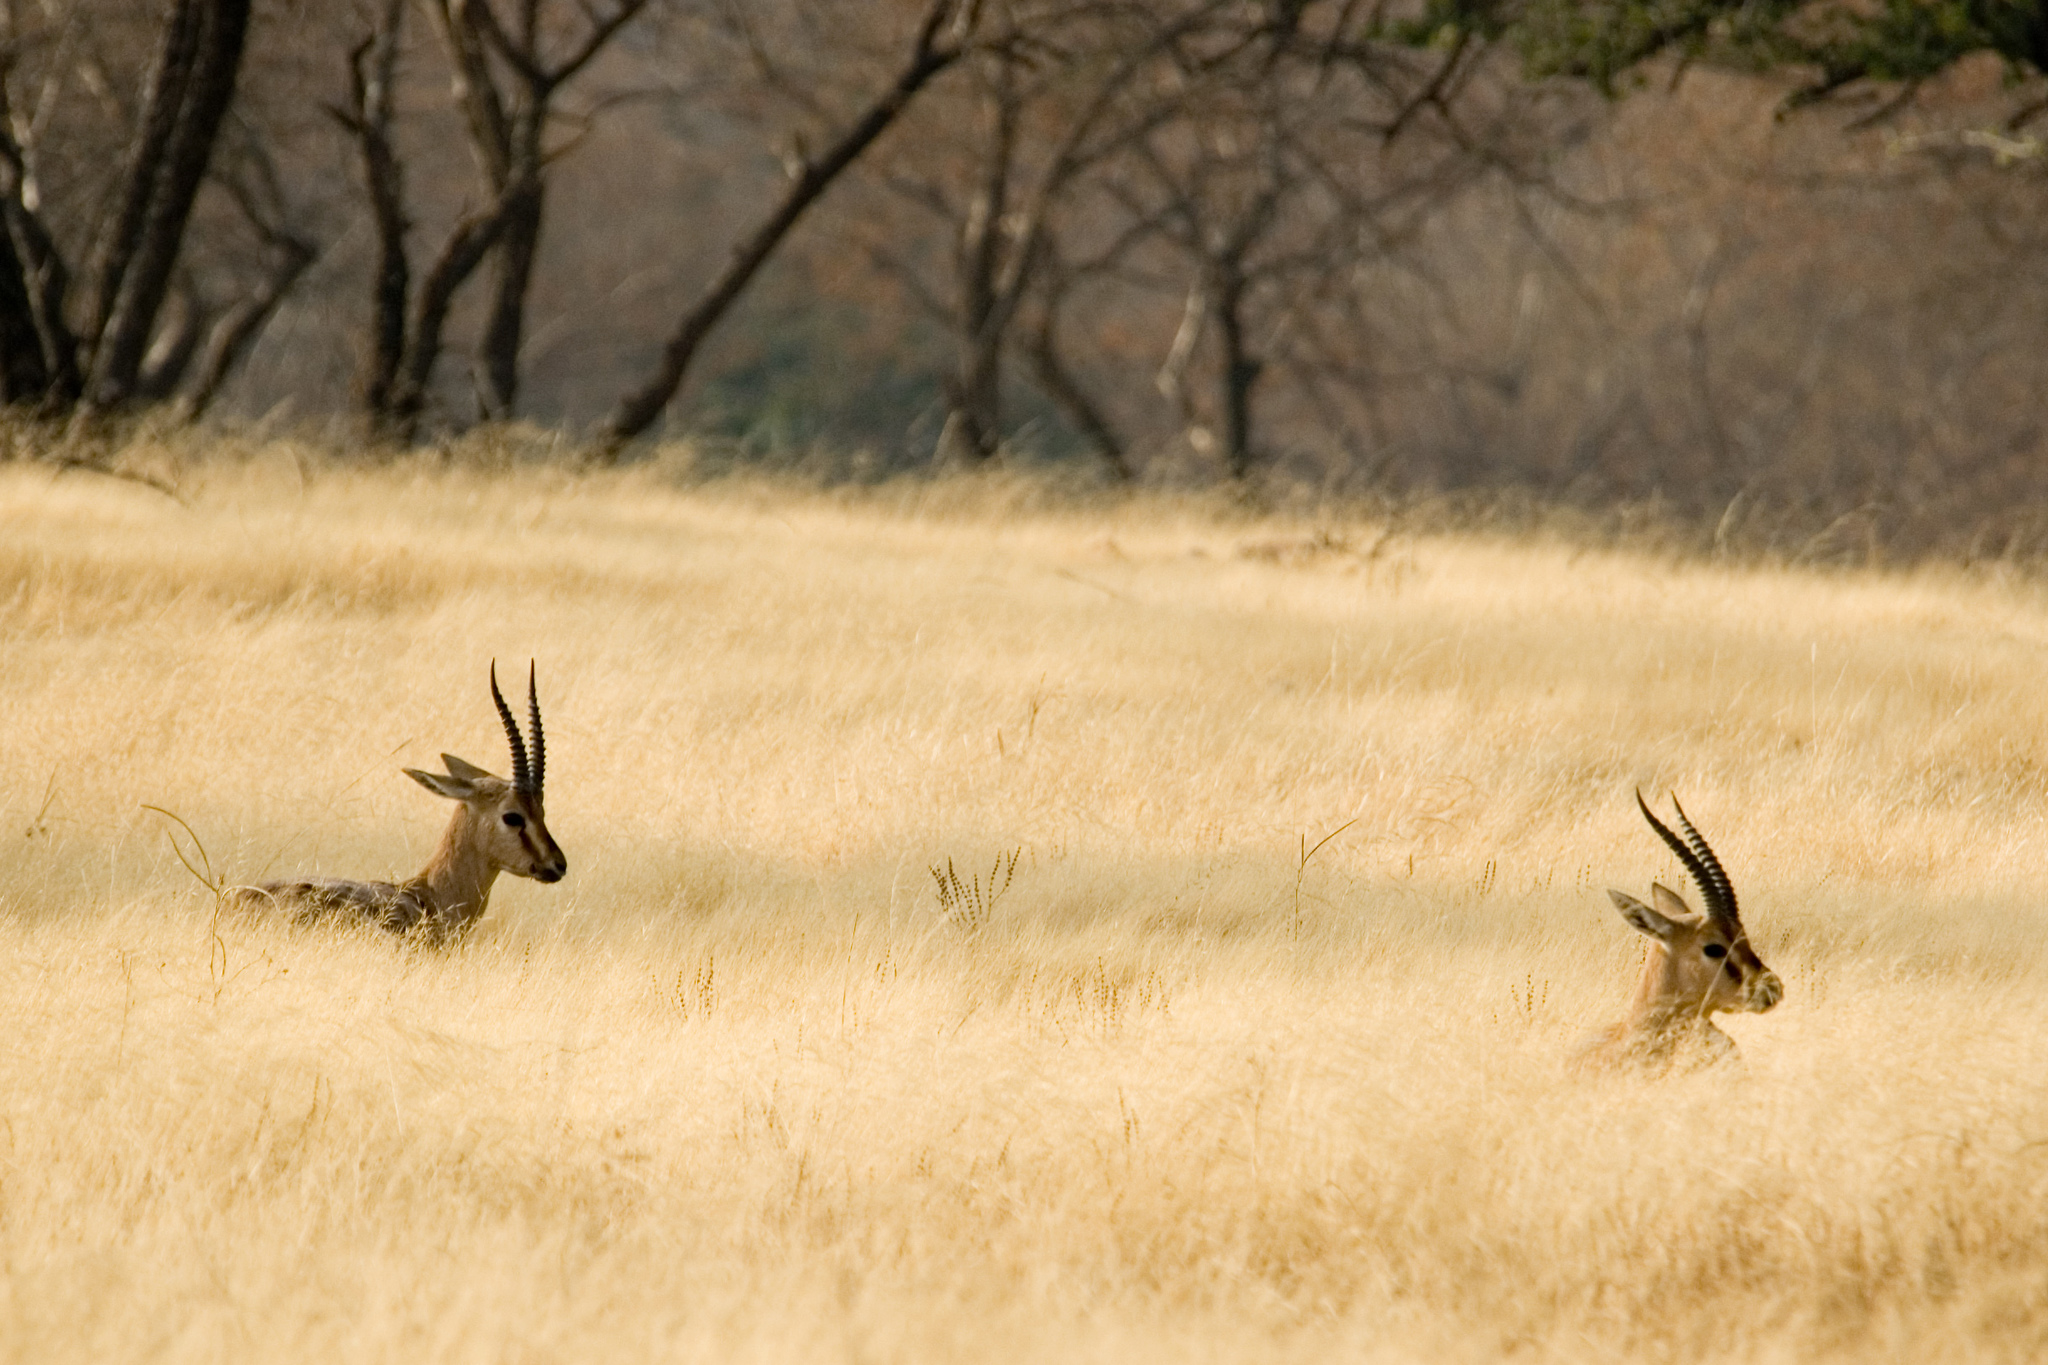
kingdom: Animalia
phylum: Chordata
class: Mammalia
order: Artiodactyla
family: Bovidae
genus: Gazella
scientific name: Gazella bennettii
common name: Indian gazelle
